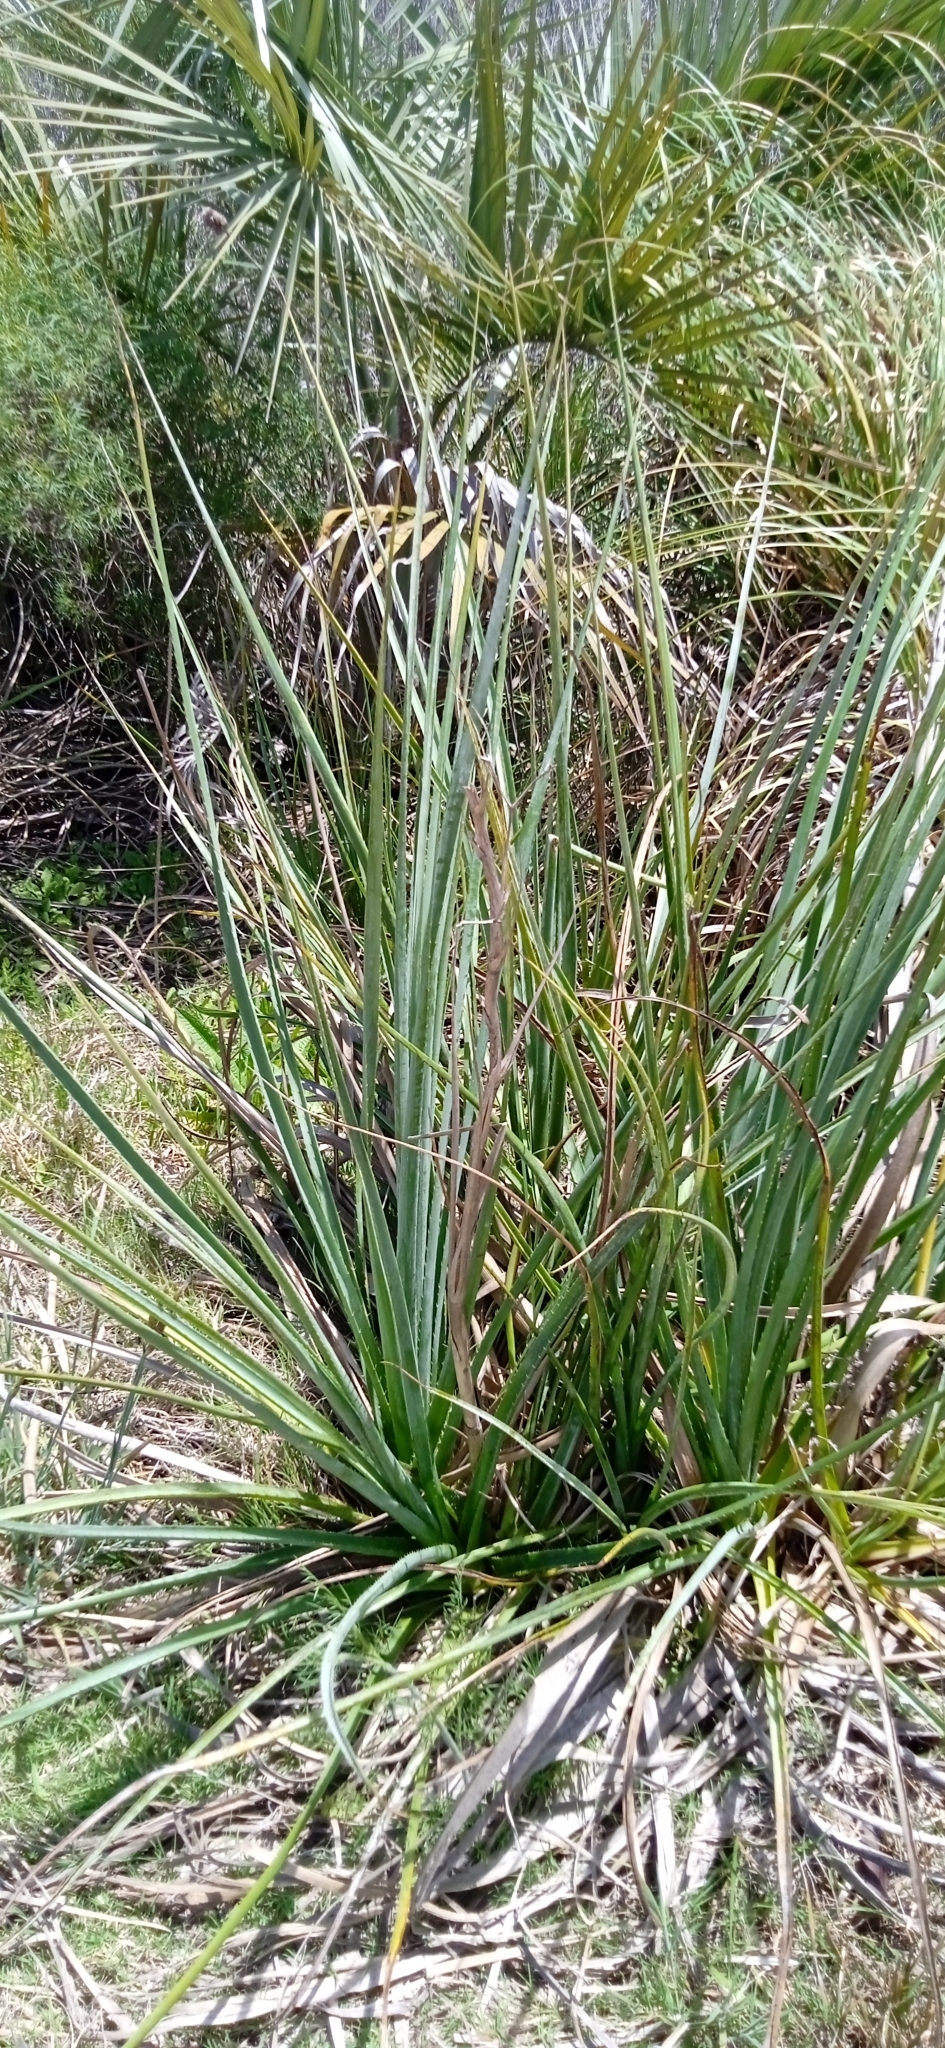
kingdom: Plantae
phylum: Tracheophyta
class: Magnoliopsida
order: Apiales
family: Apiaceae
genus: Eryngium
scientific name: Eryngium pandanifolium
